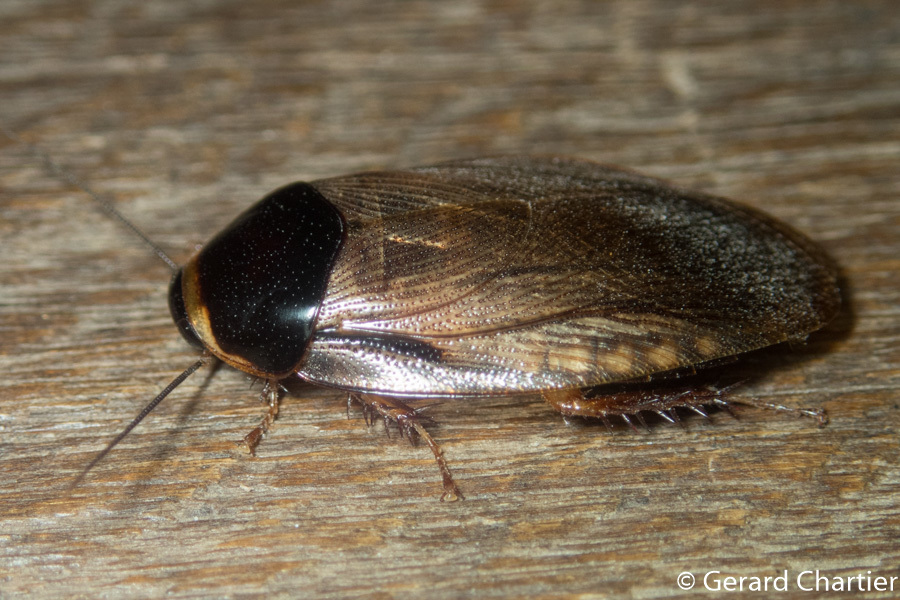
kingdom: Animalia
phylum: Arthropoda
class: Insecta
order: Blattodea
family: Blaberidae
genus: Pycnoscelus
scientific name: Pycnoscelus indicus
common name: Burrowing cockroach
